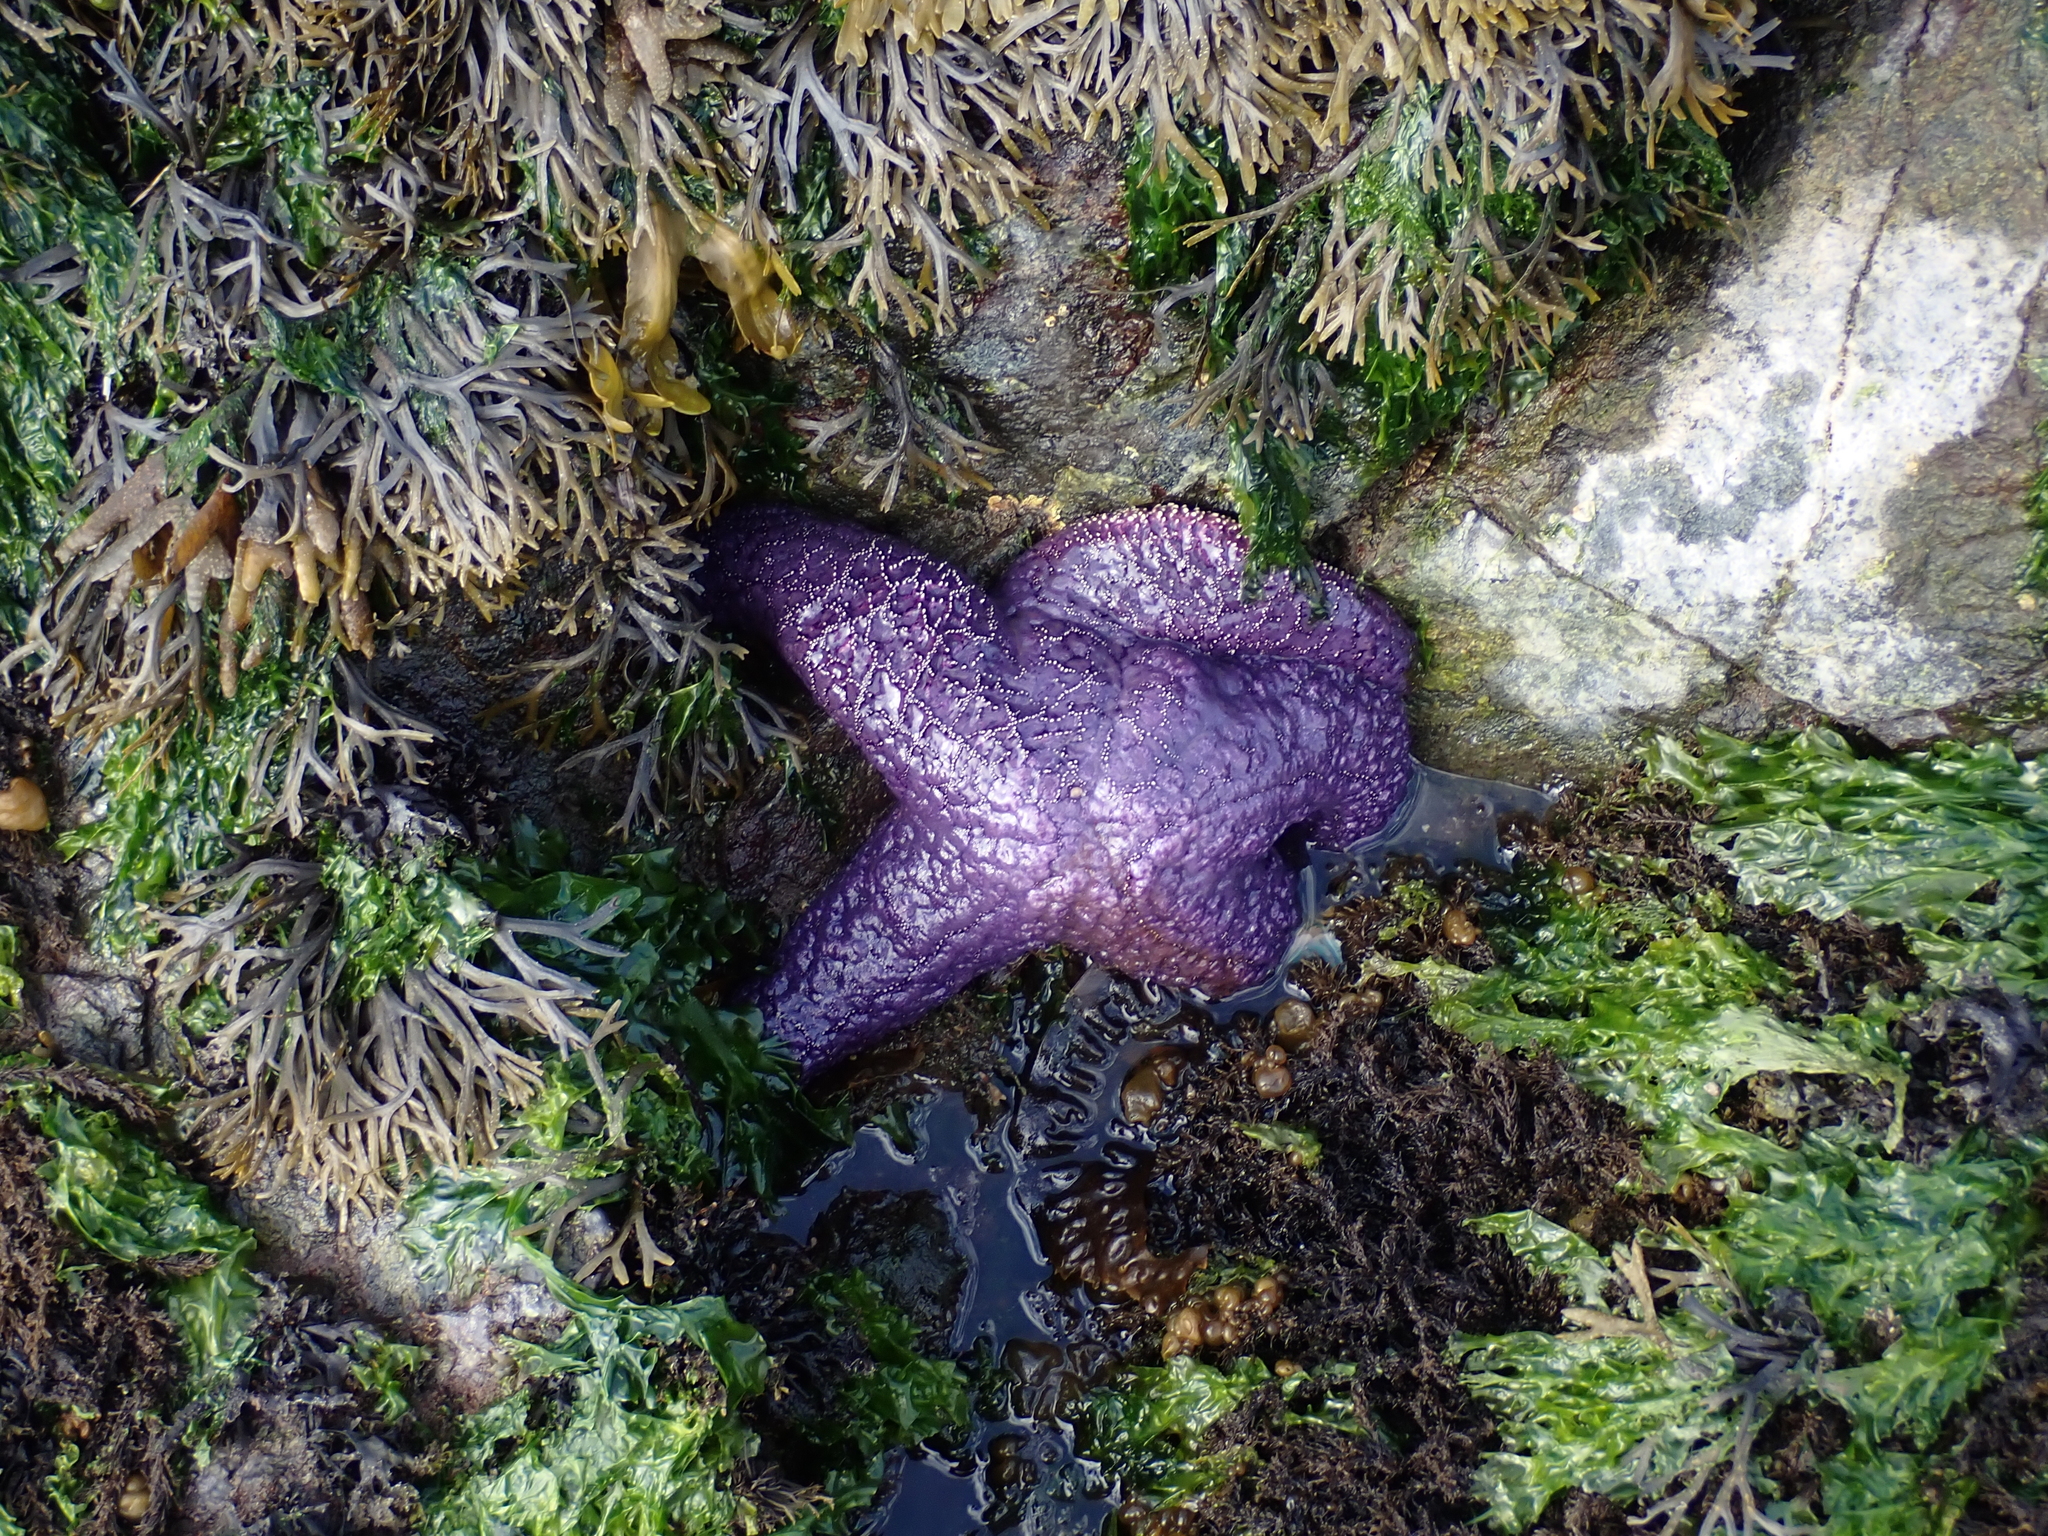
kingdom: Animalia
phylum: Echinodermata
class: Asteroidea
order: Forcipulatida
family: Asteriidae
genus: Pisaster
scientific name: Pisaster ochraceus
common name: Ochre stars
